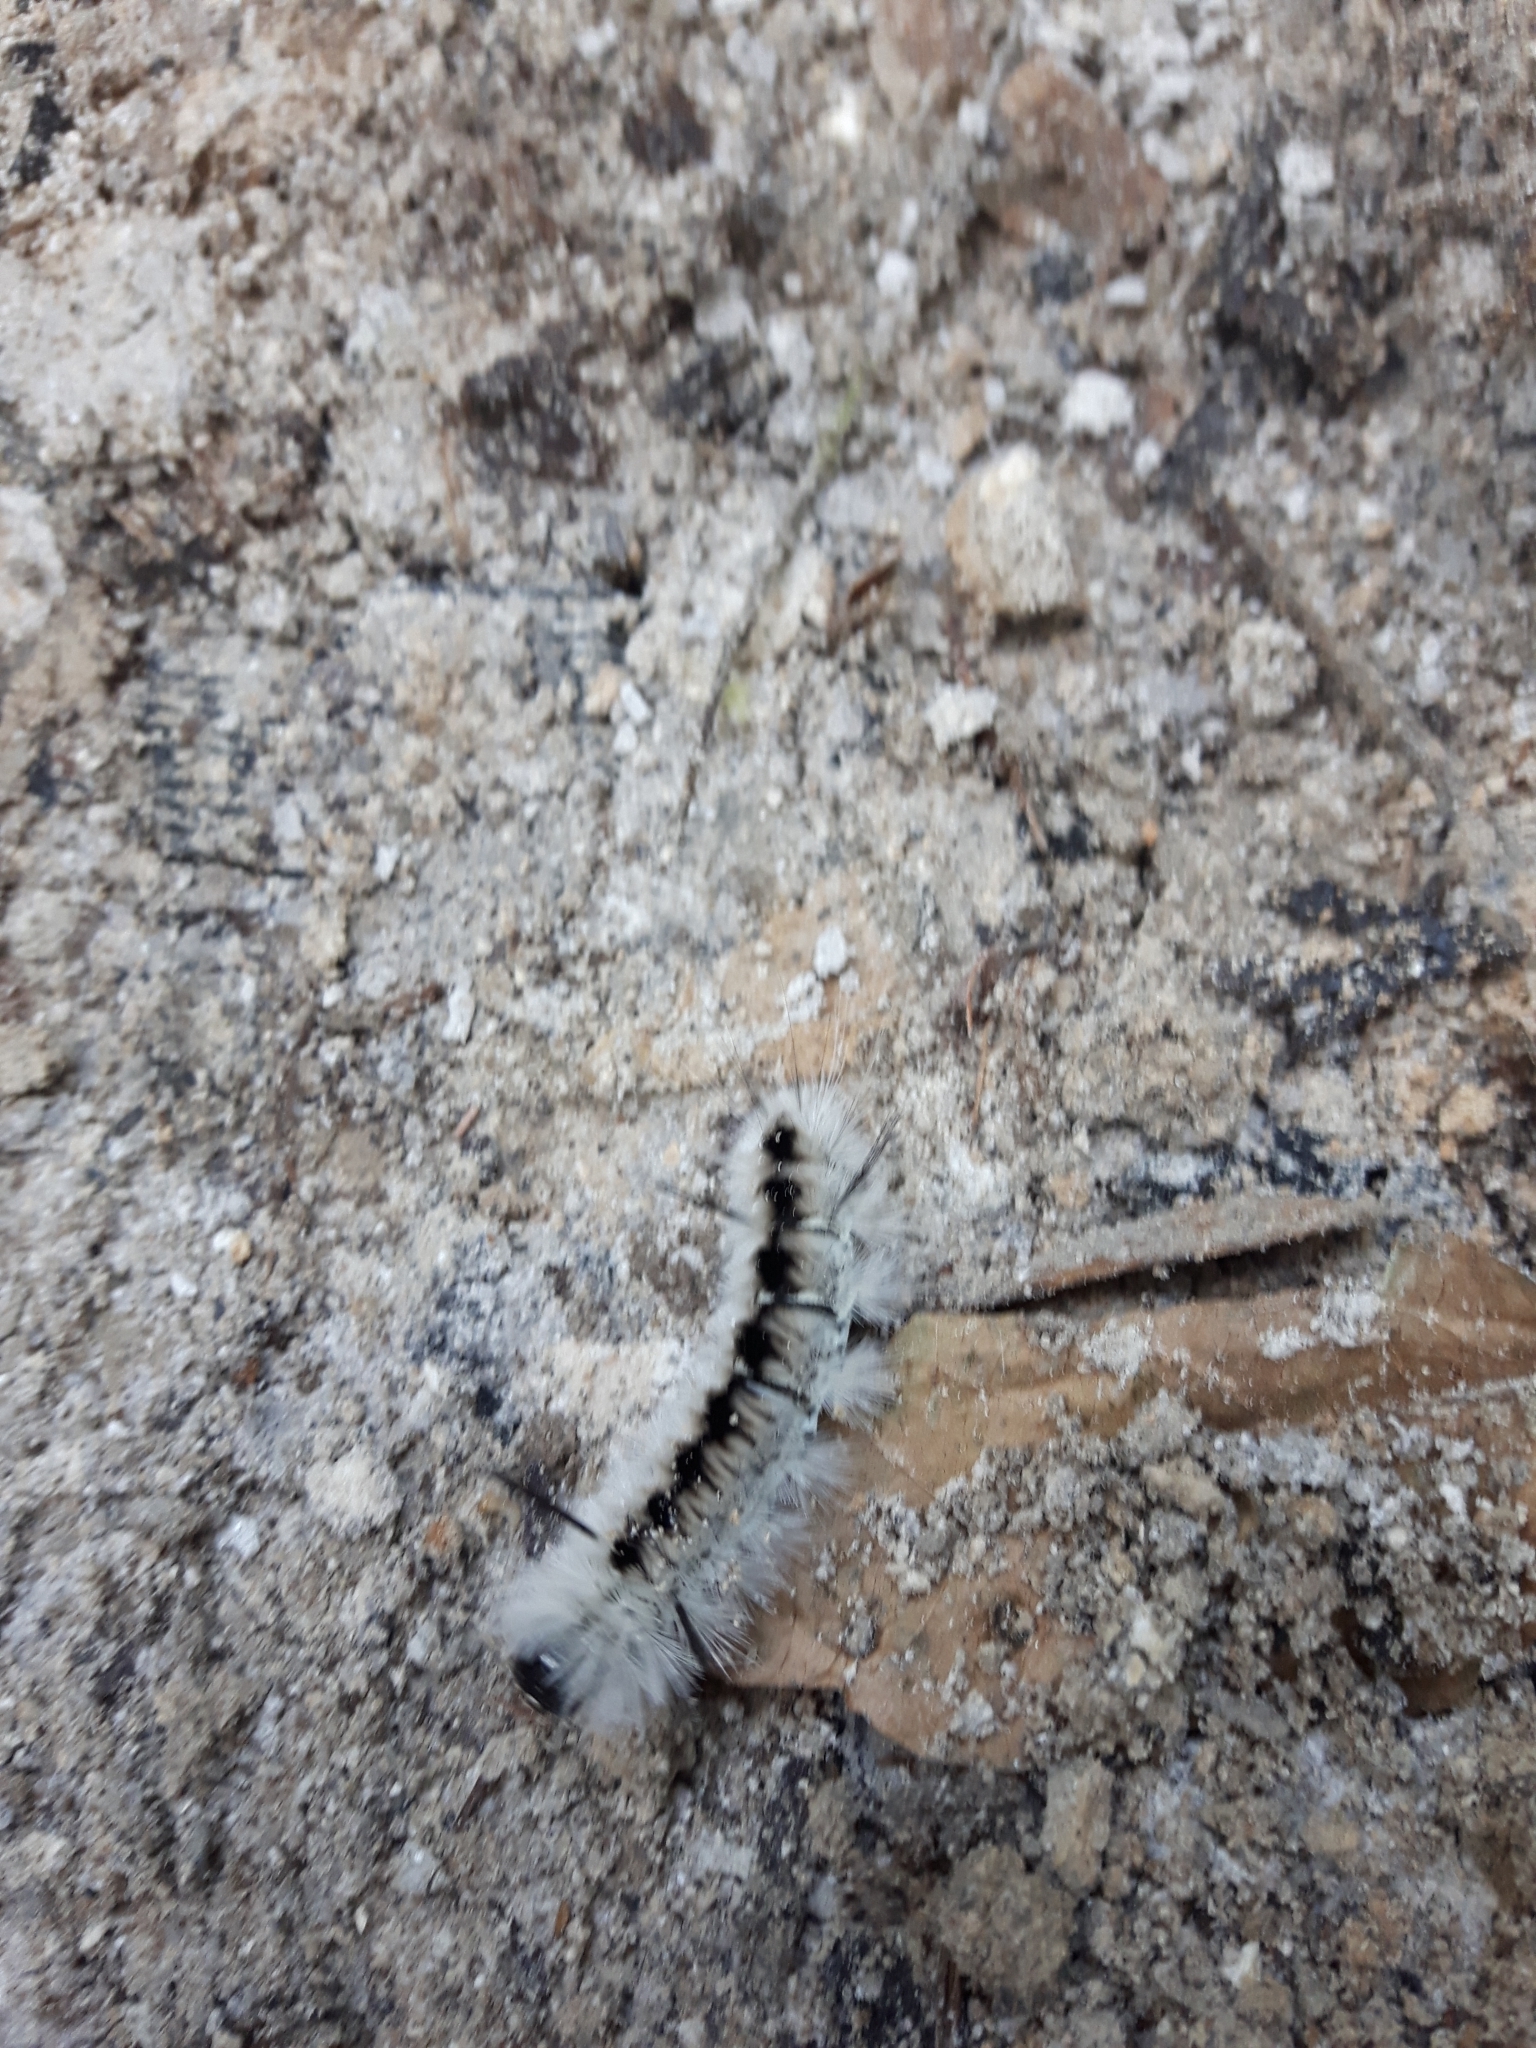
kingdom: Animalia
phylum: Arthropoda
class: Insecta
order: Lepidoptera
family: Erebidae
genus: Lophocampa
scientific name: Lophocampa caryae
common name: Hickory tussock moth
